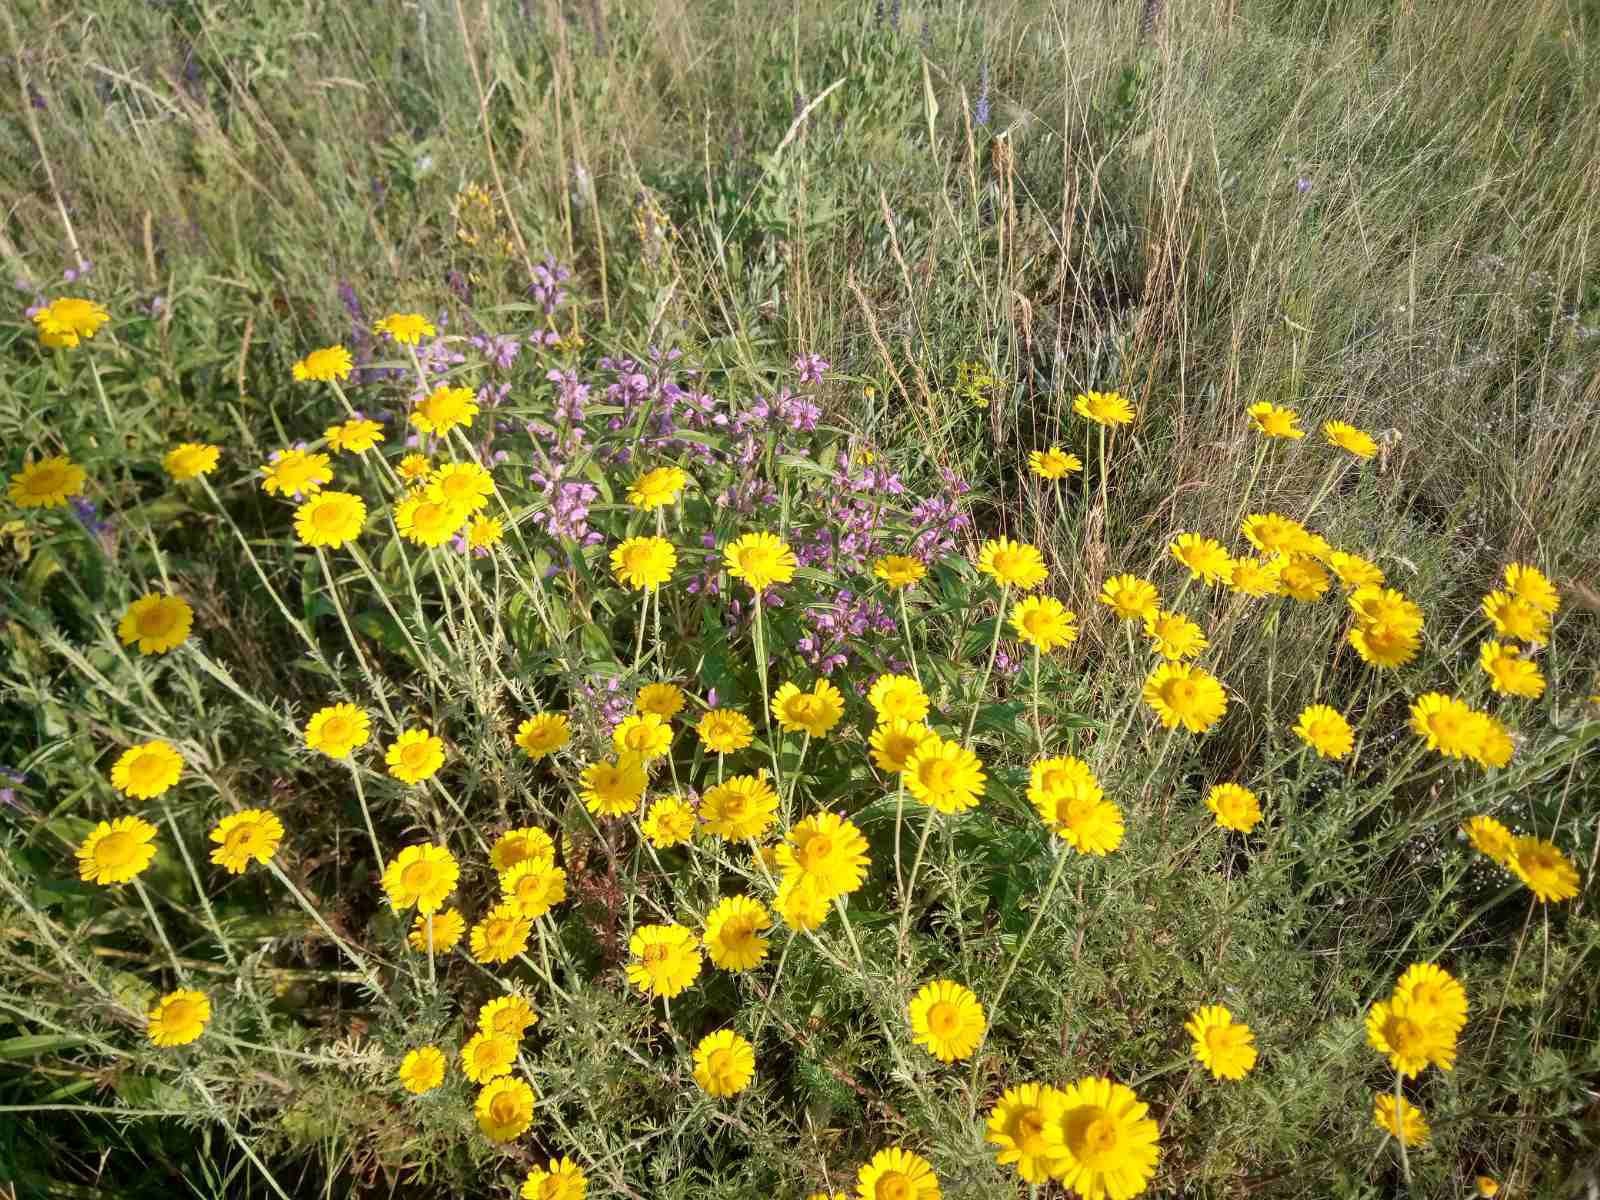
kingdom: Plantae
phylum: Tracheophyta
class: Magnoliopsida
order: Asterales
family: Asteraceae
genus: Cota
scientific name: Cota tinctoria
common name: Golden chamomile
